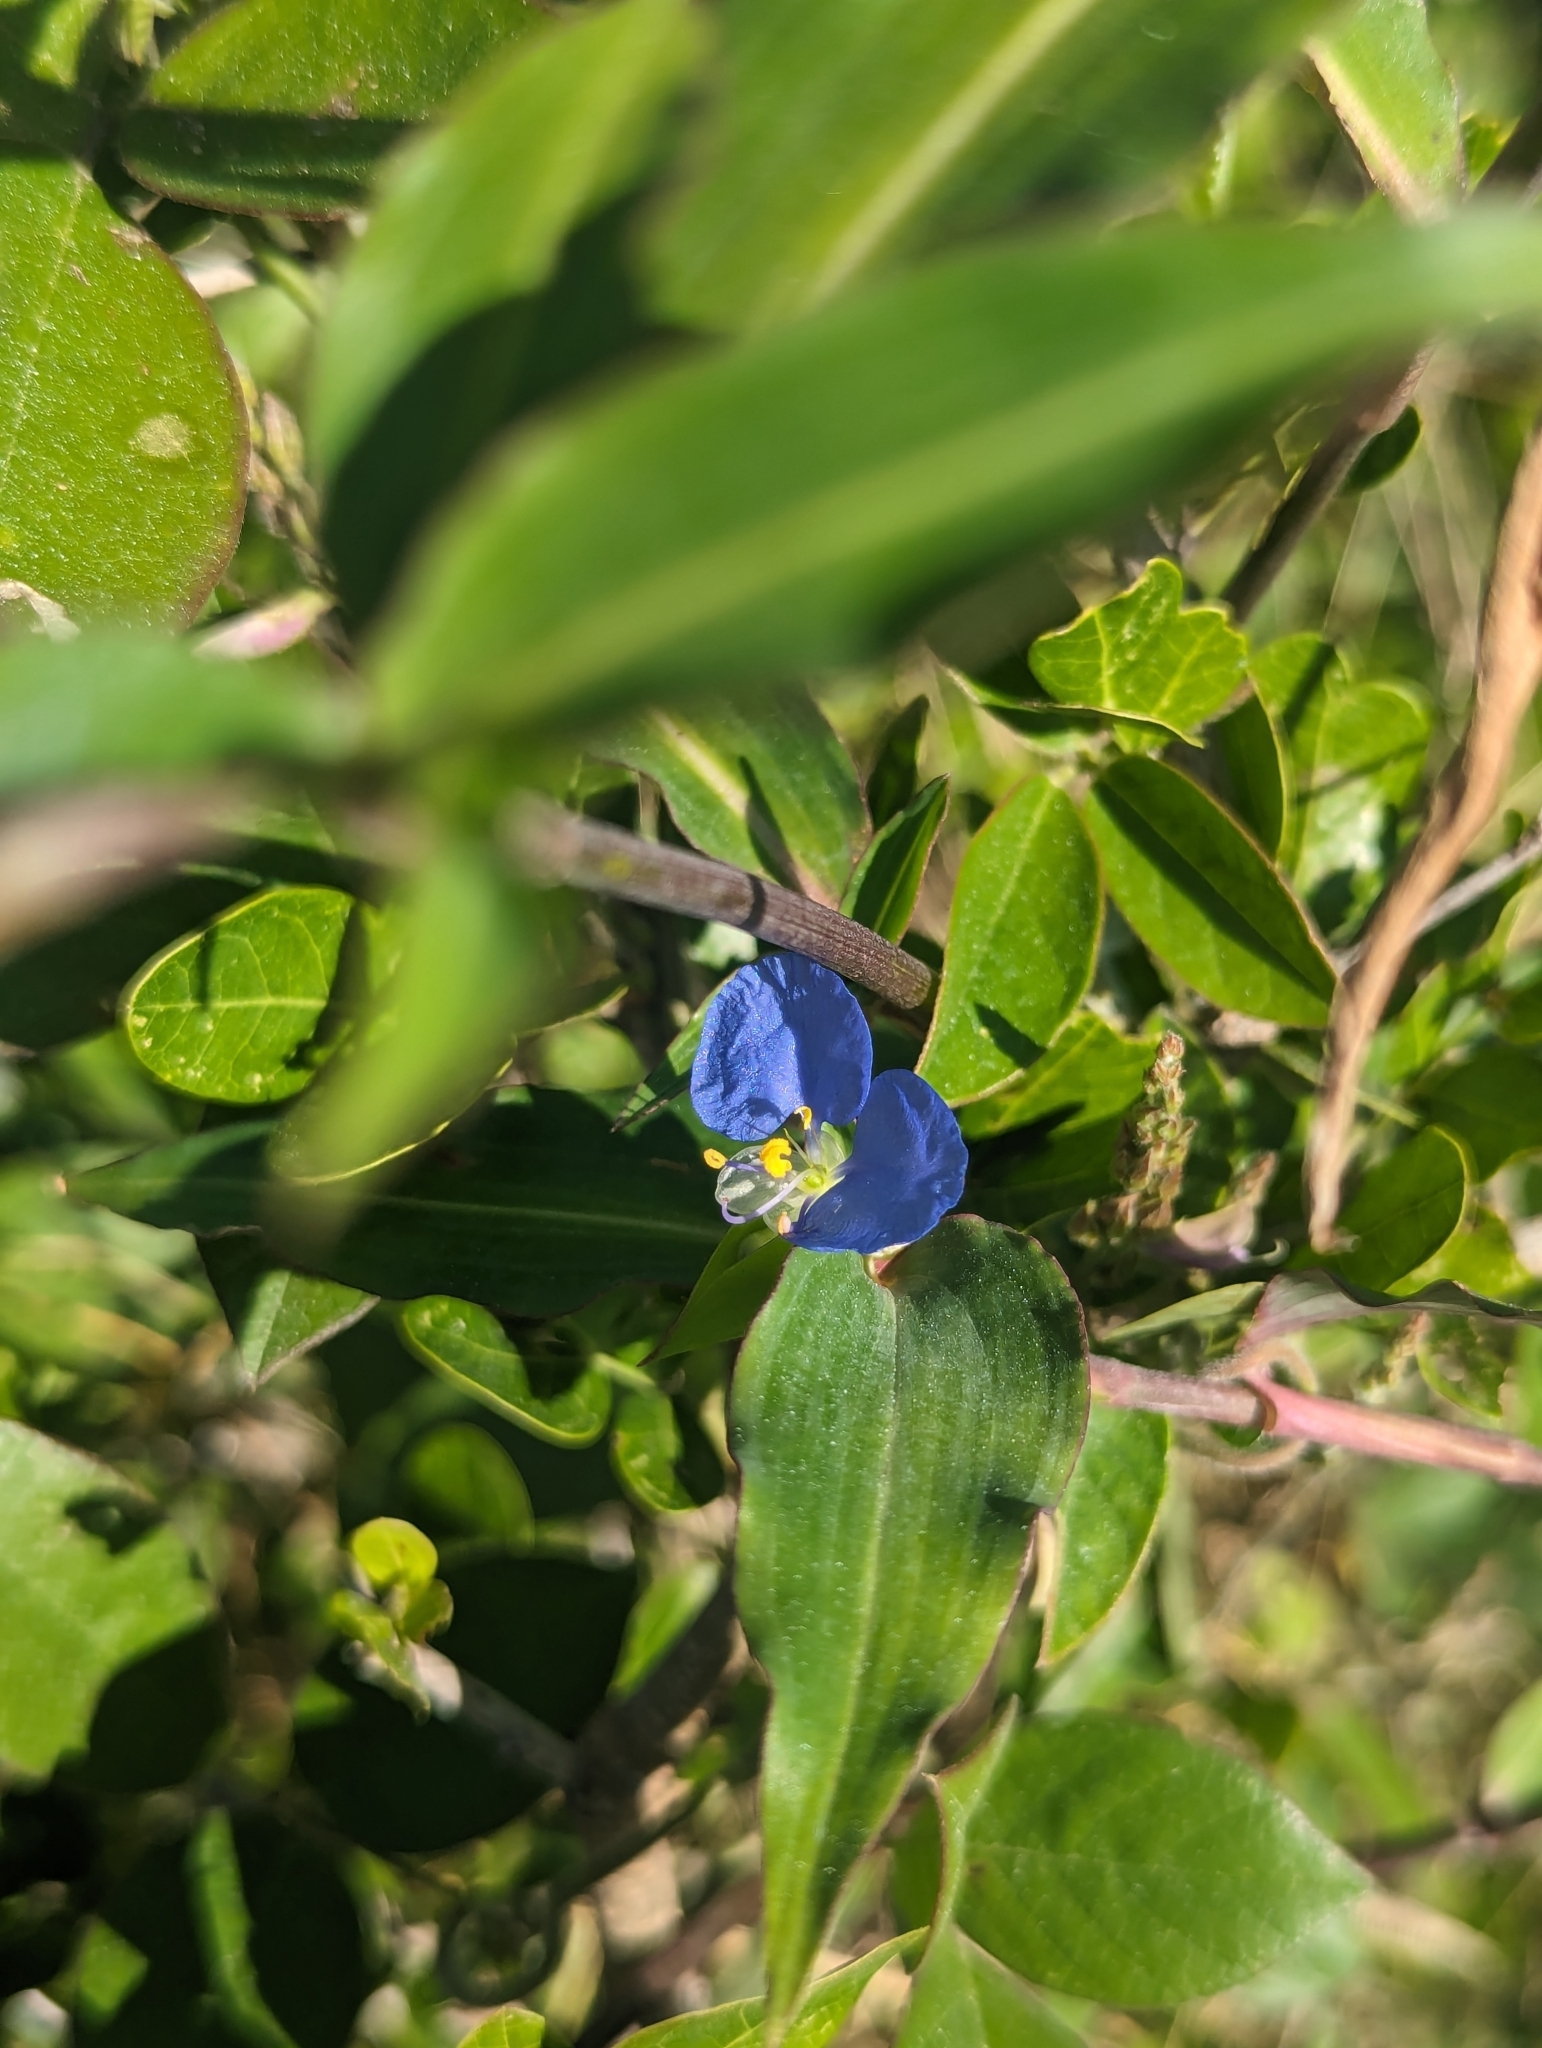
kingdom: Plantae
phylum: Tracheophyta
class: Liliopsida
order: Commelinales
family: Commelinaceae
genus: Commelina
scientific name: Commelina erecta
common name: Blousel blommetjie
